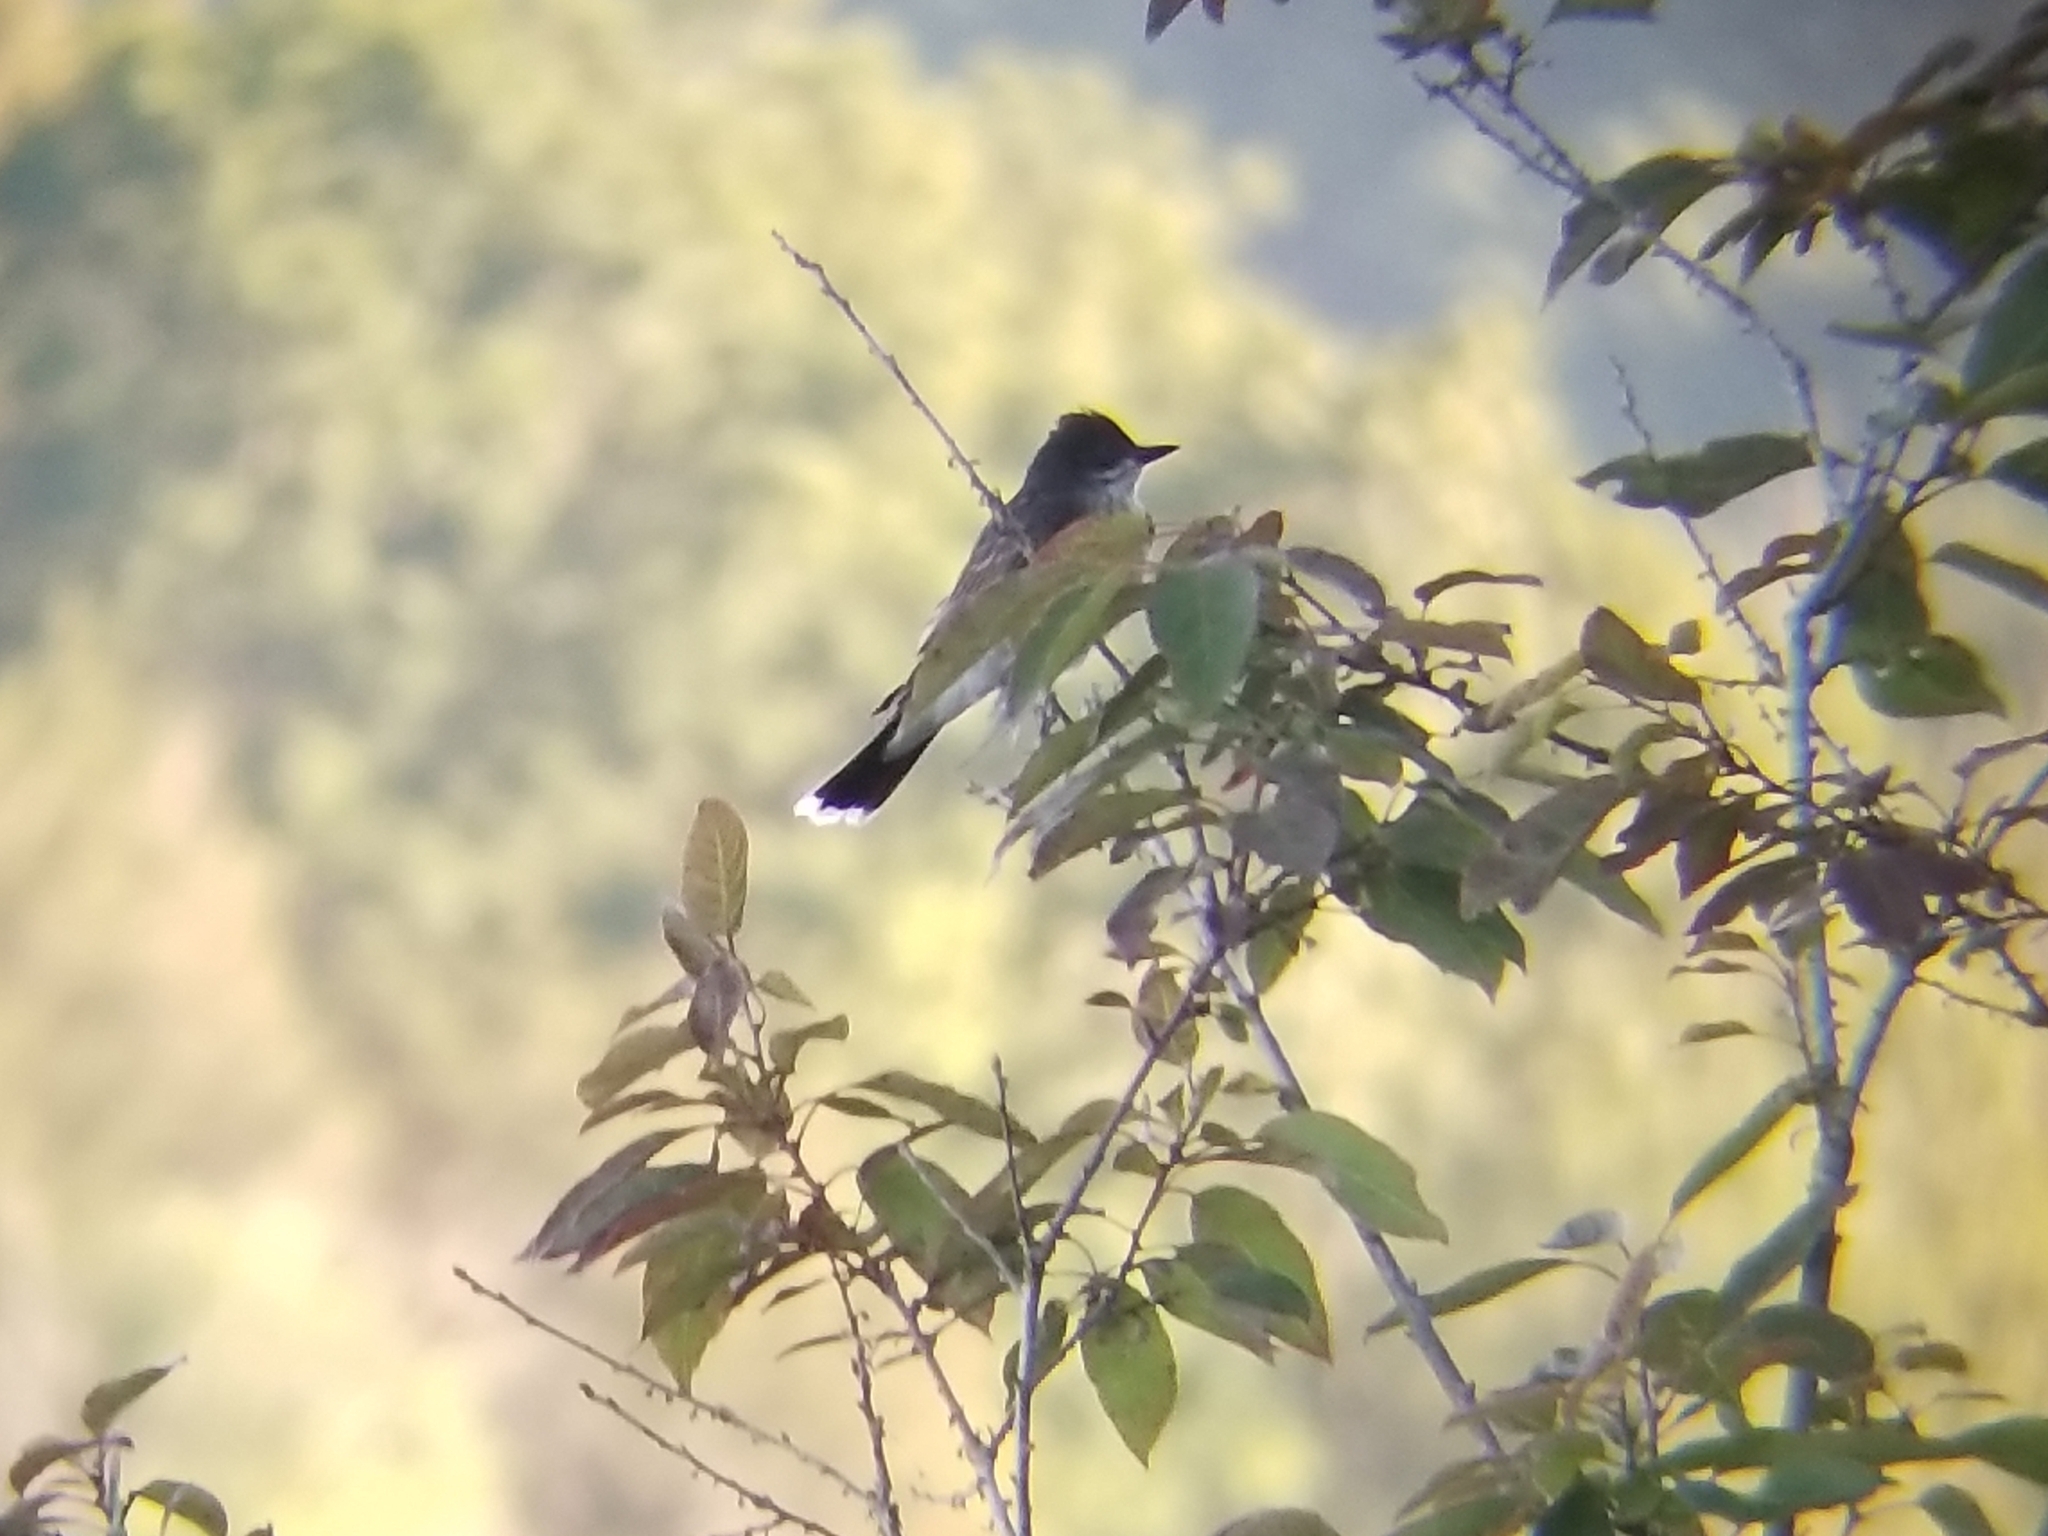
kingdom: Animalia
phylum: Chordata
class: Aves
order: Passeriformes
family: Tyrannidae
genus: Tyrannus
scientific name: Tyrannus tyrannus
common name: Eastern kingbird
